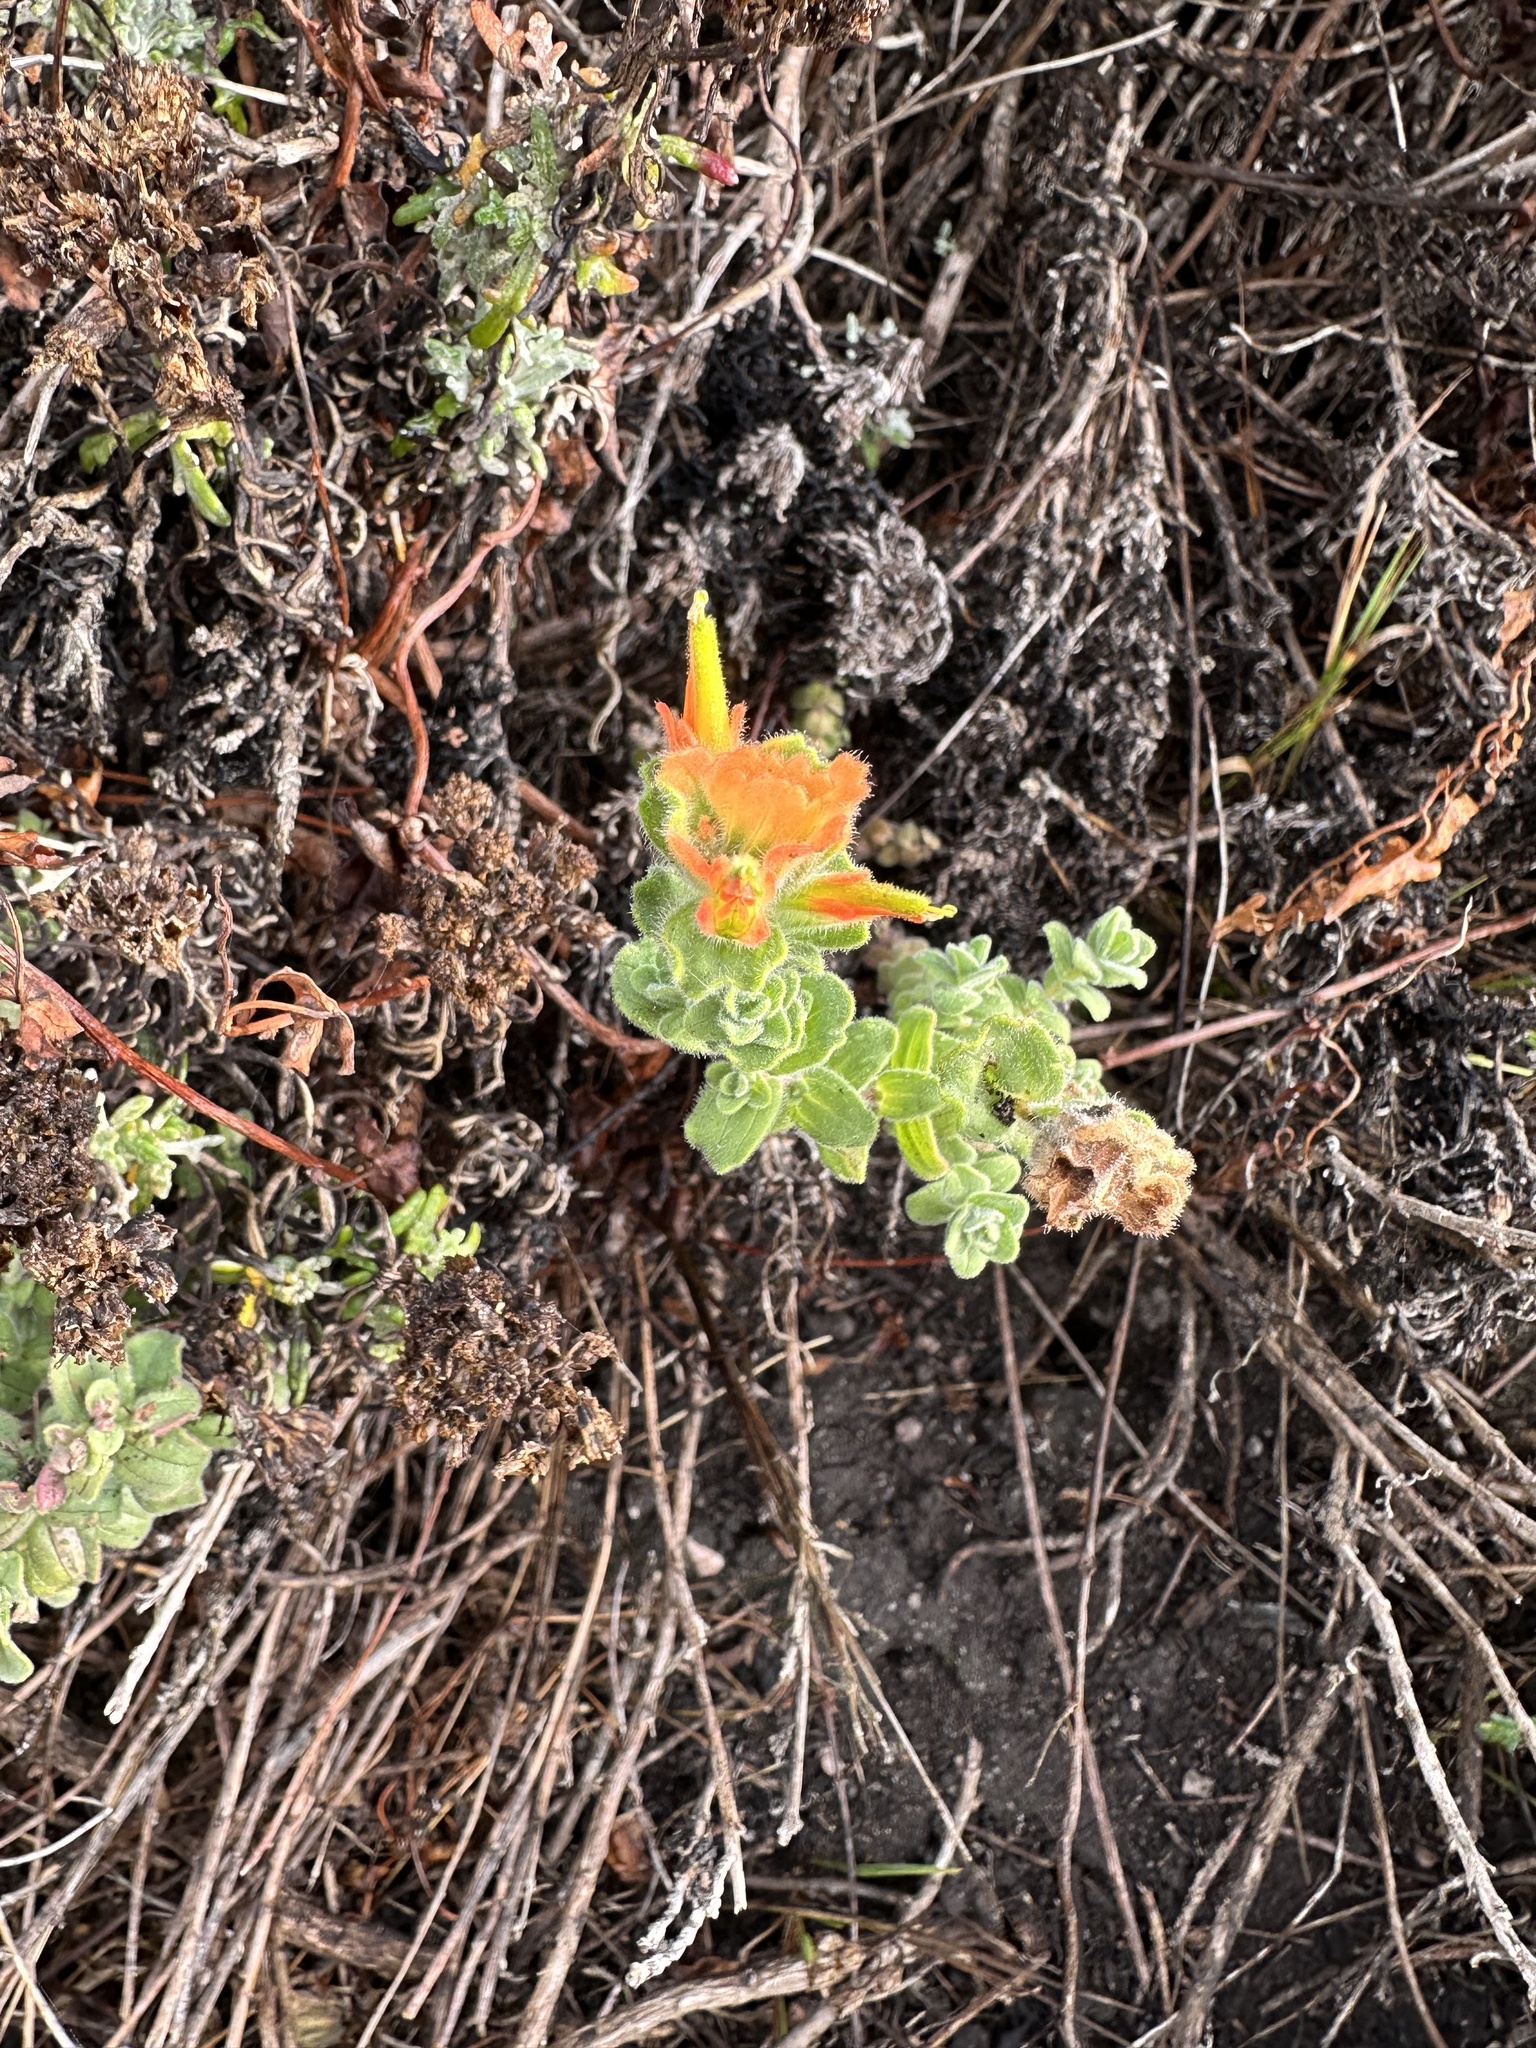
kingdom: Plantae
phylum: Tracheophyta
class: Magnoliopsida
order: Lamiales
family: Orobanchaceae
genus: Castilleja
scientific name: Castilleja latifolia
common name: Monterey indian paintbrush
